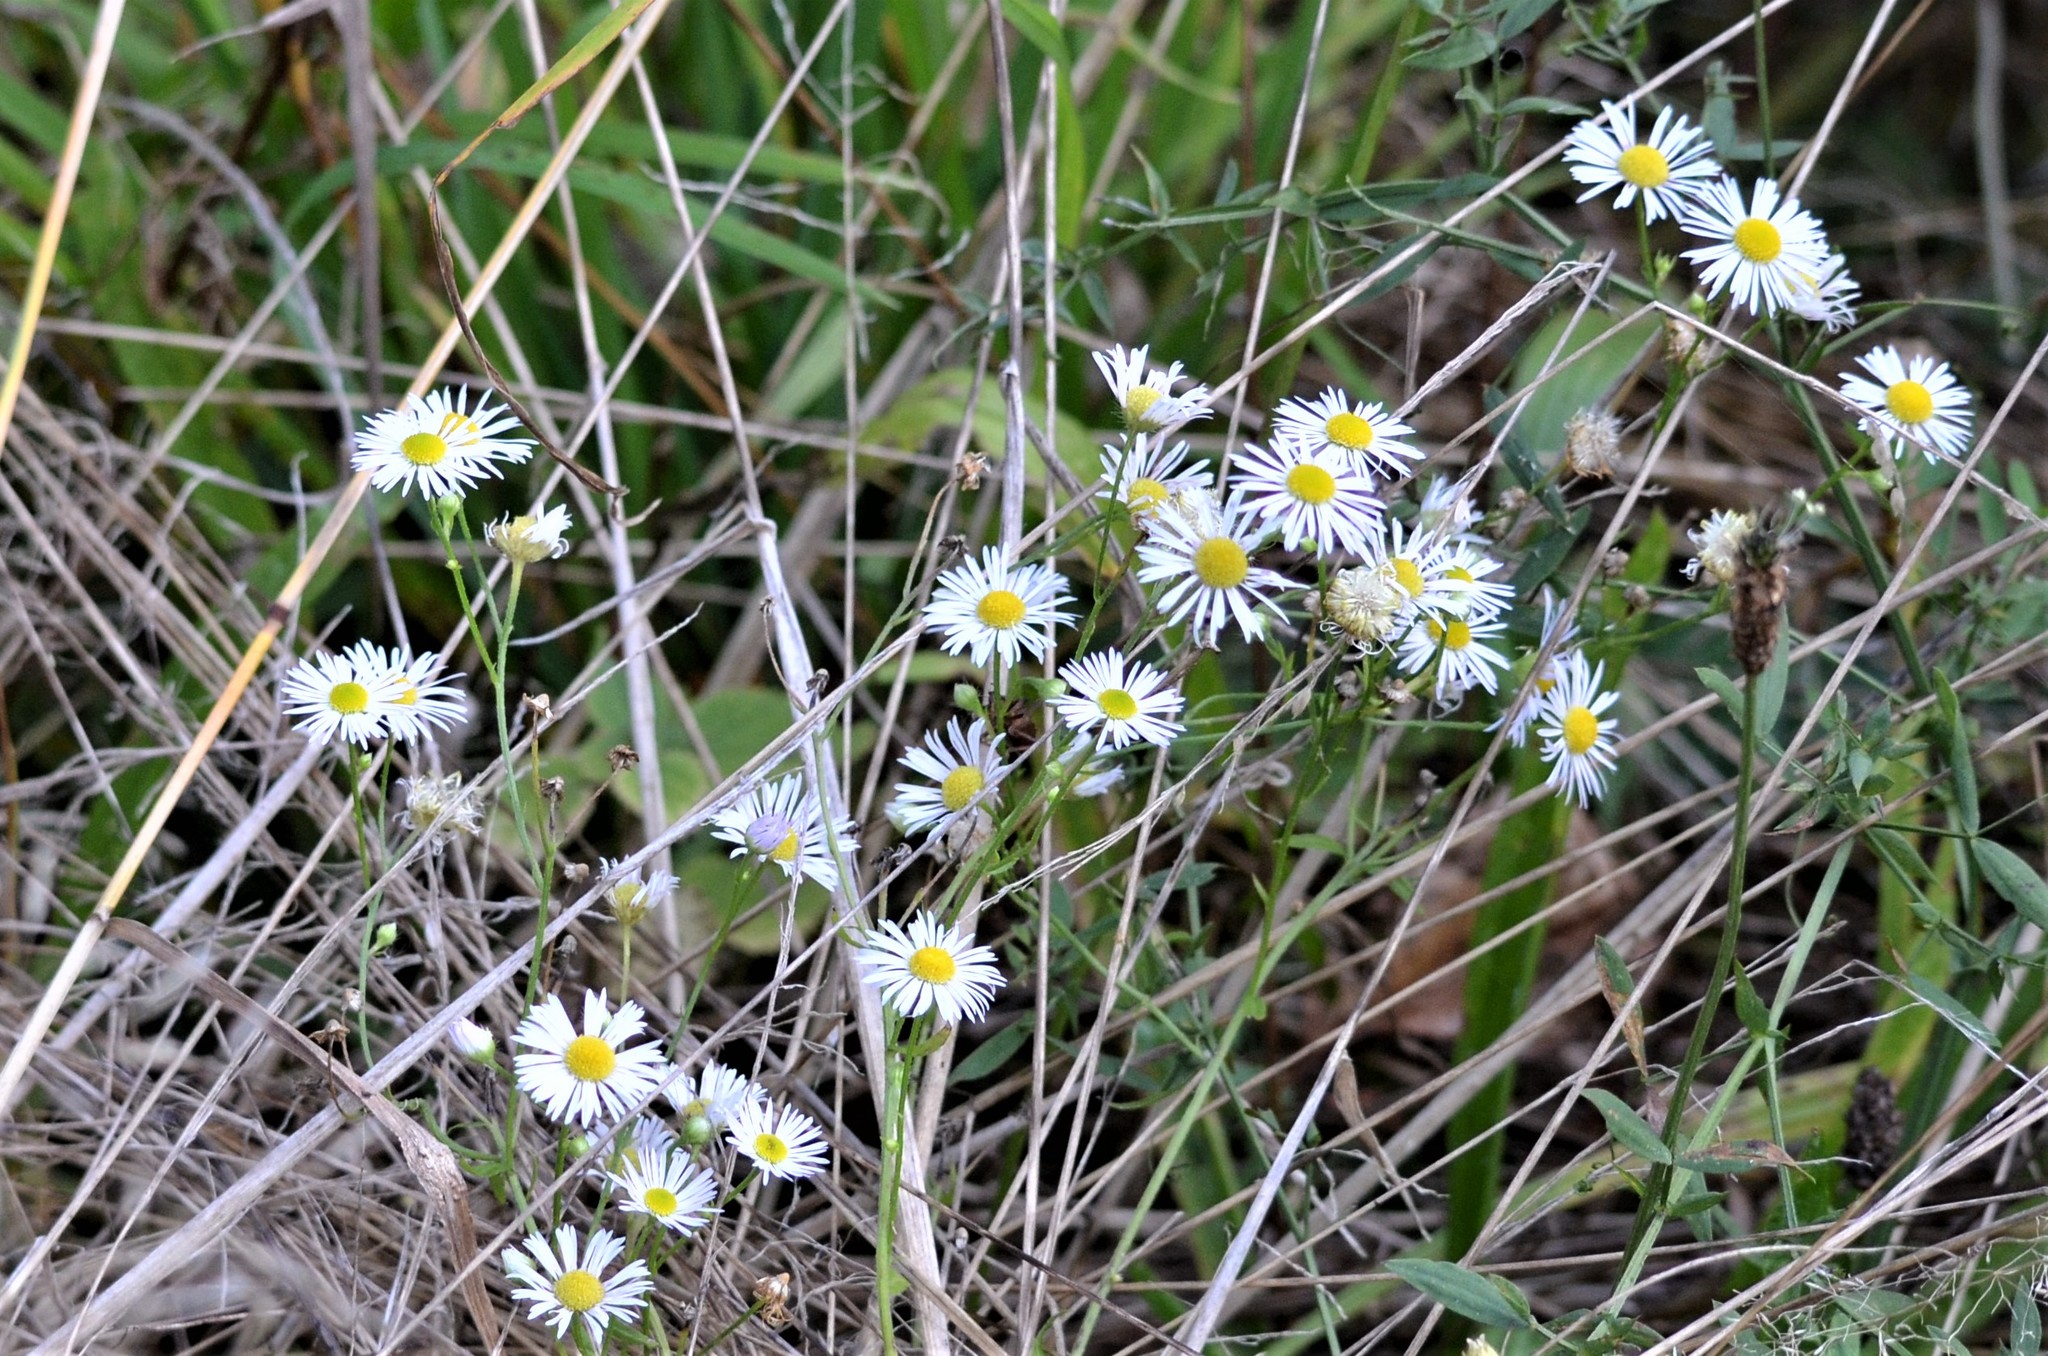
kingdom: Plantae
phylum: Tracheophyta
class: Magnoliopsida
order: Asterales
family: Asteraceae
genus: Erigeron
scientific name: Erigeron annuus
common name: Tall fleabane
